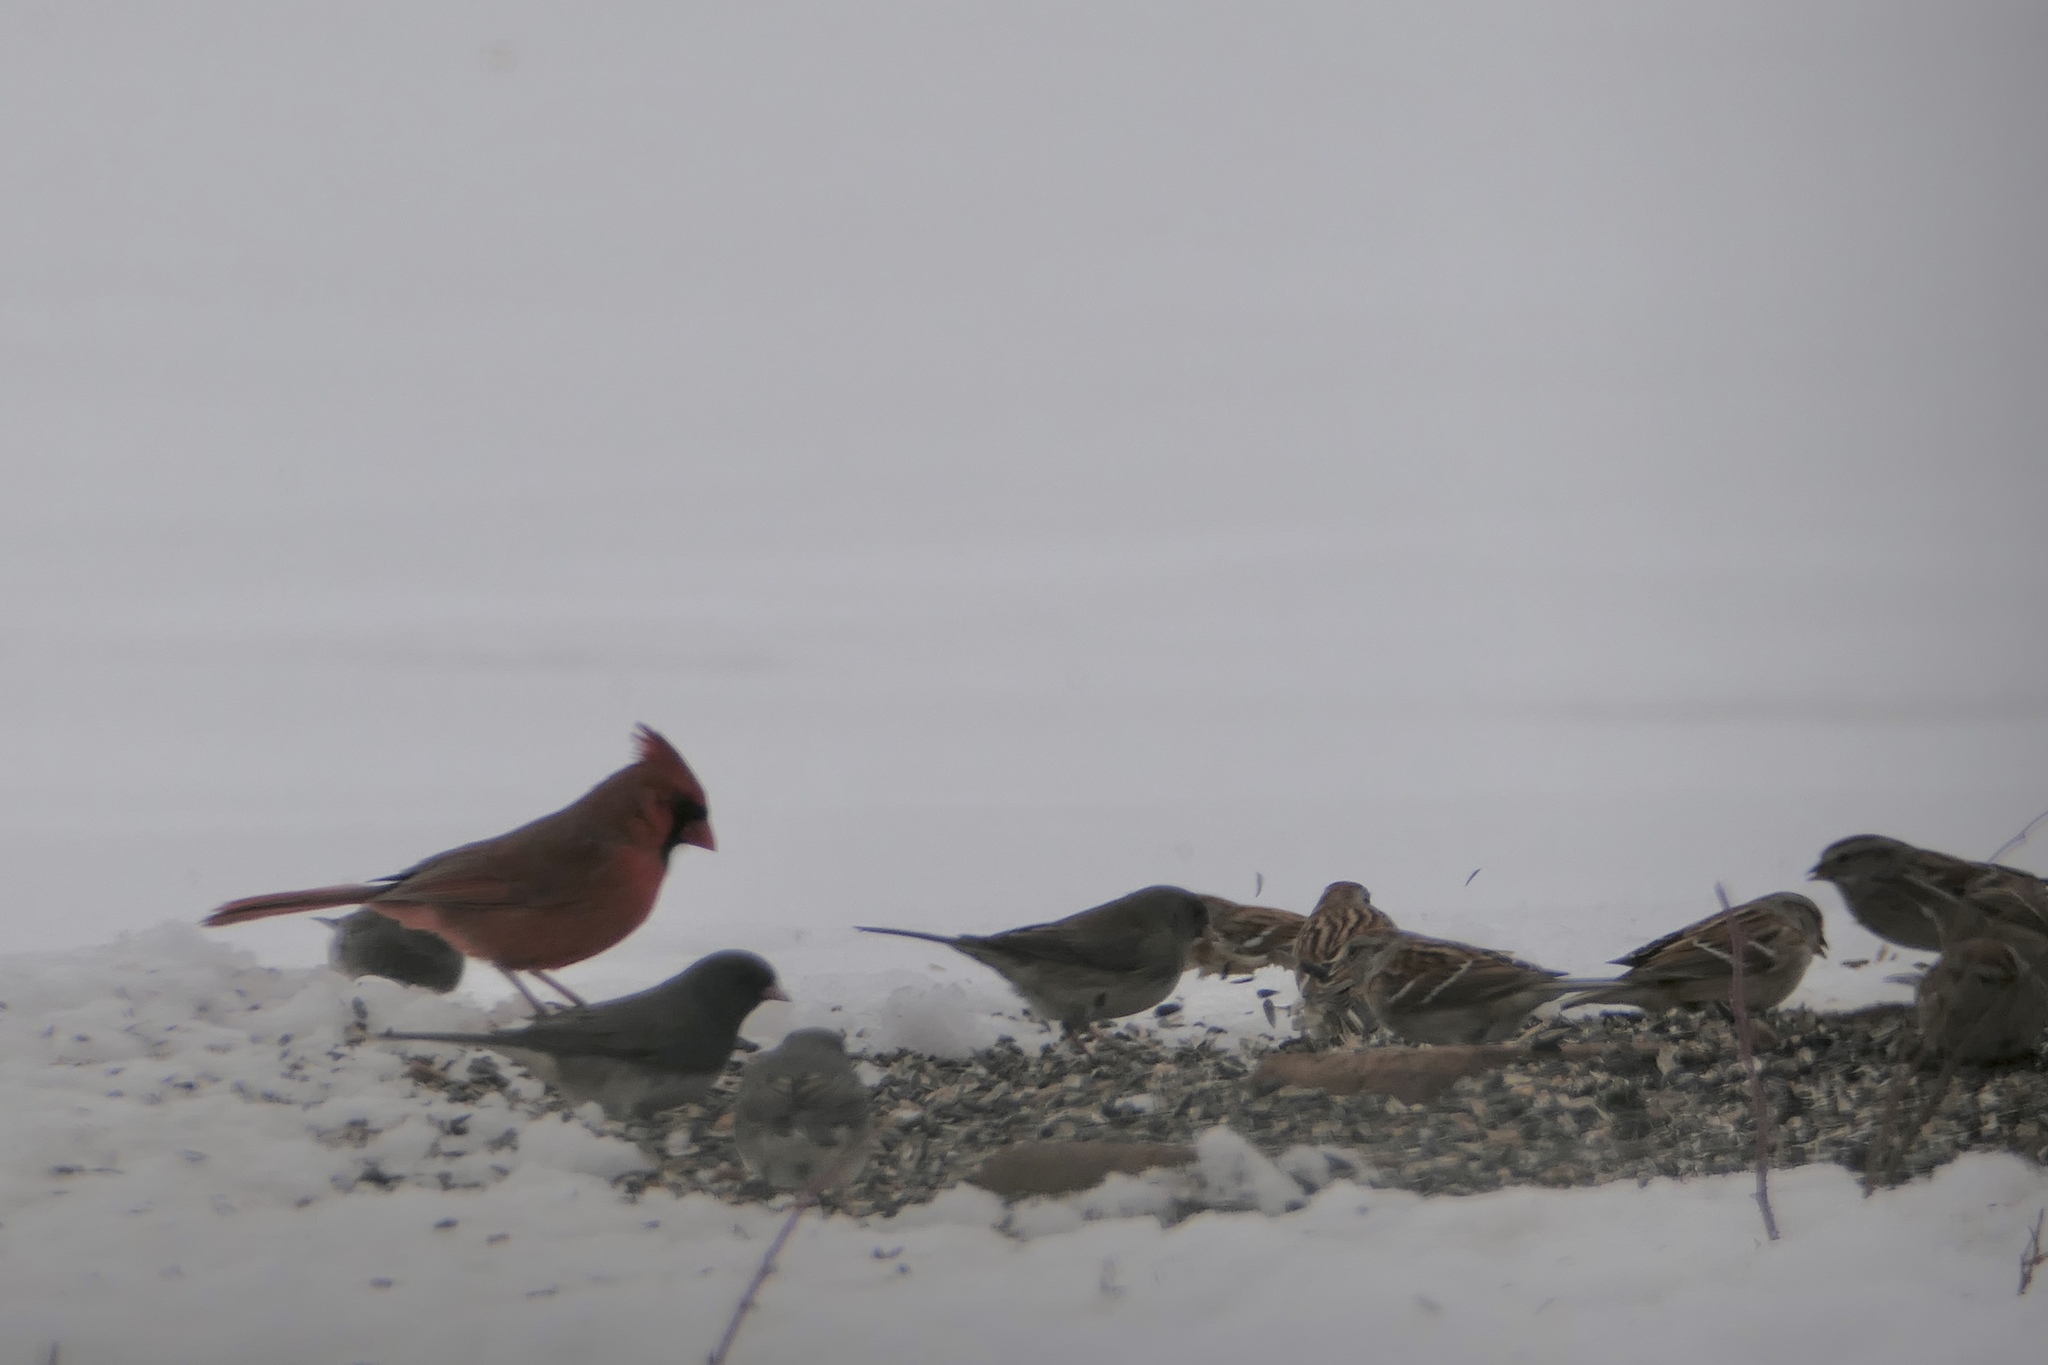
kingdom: Animalia
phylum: Chordata
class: Aves
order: Passeriformes
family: Passerellidae
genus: Junco
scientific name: Junco hyemalis
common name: Dark-eyed junco
